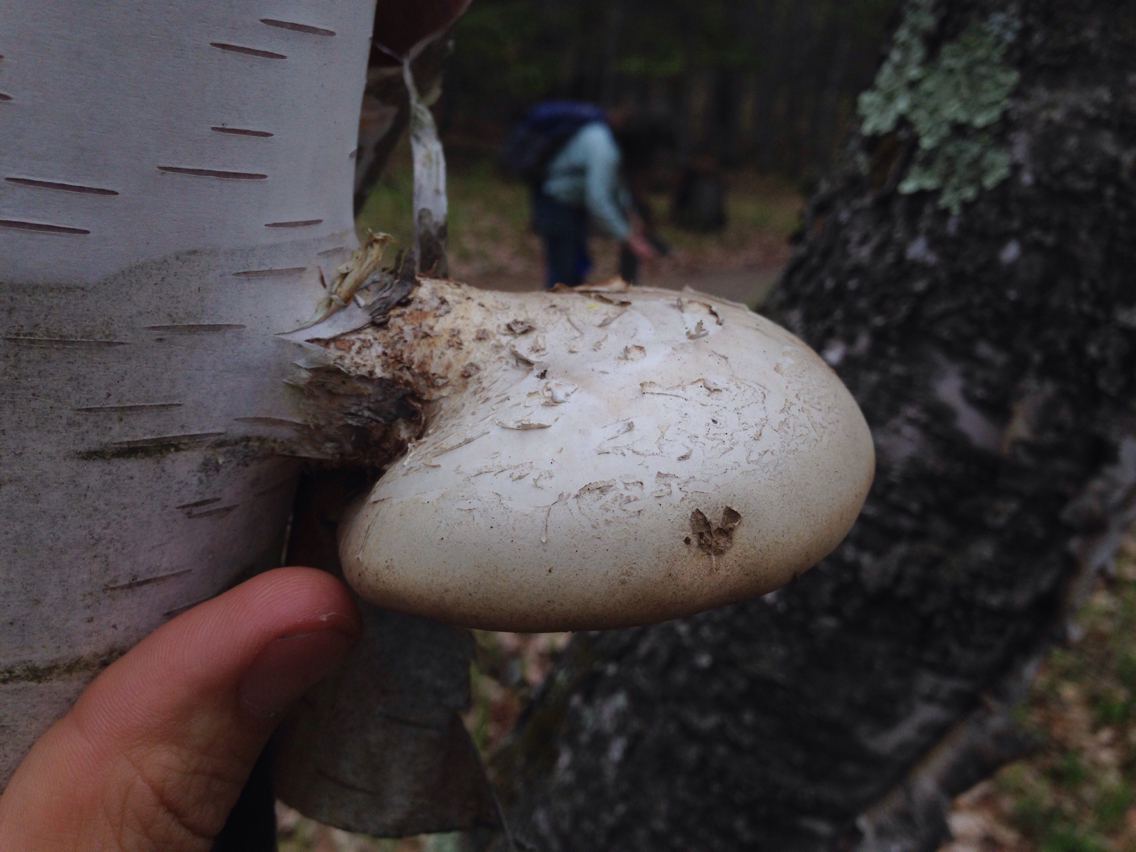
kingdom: Fungi
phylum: Basidiomycota
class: Agaricomycetes
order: Polyporales
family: Fomitopsidaceae
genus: Fomitopsis
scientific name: Fomitopsis betulina
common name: Birch polypore
